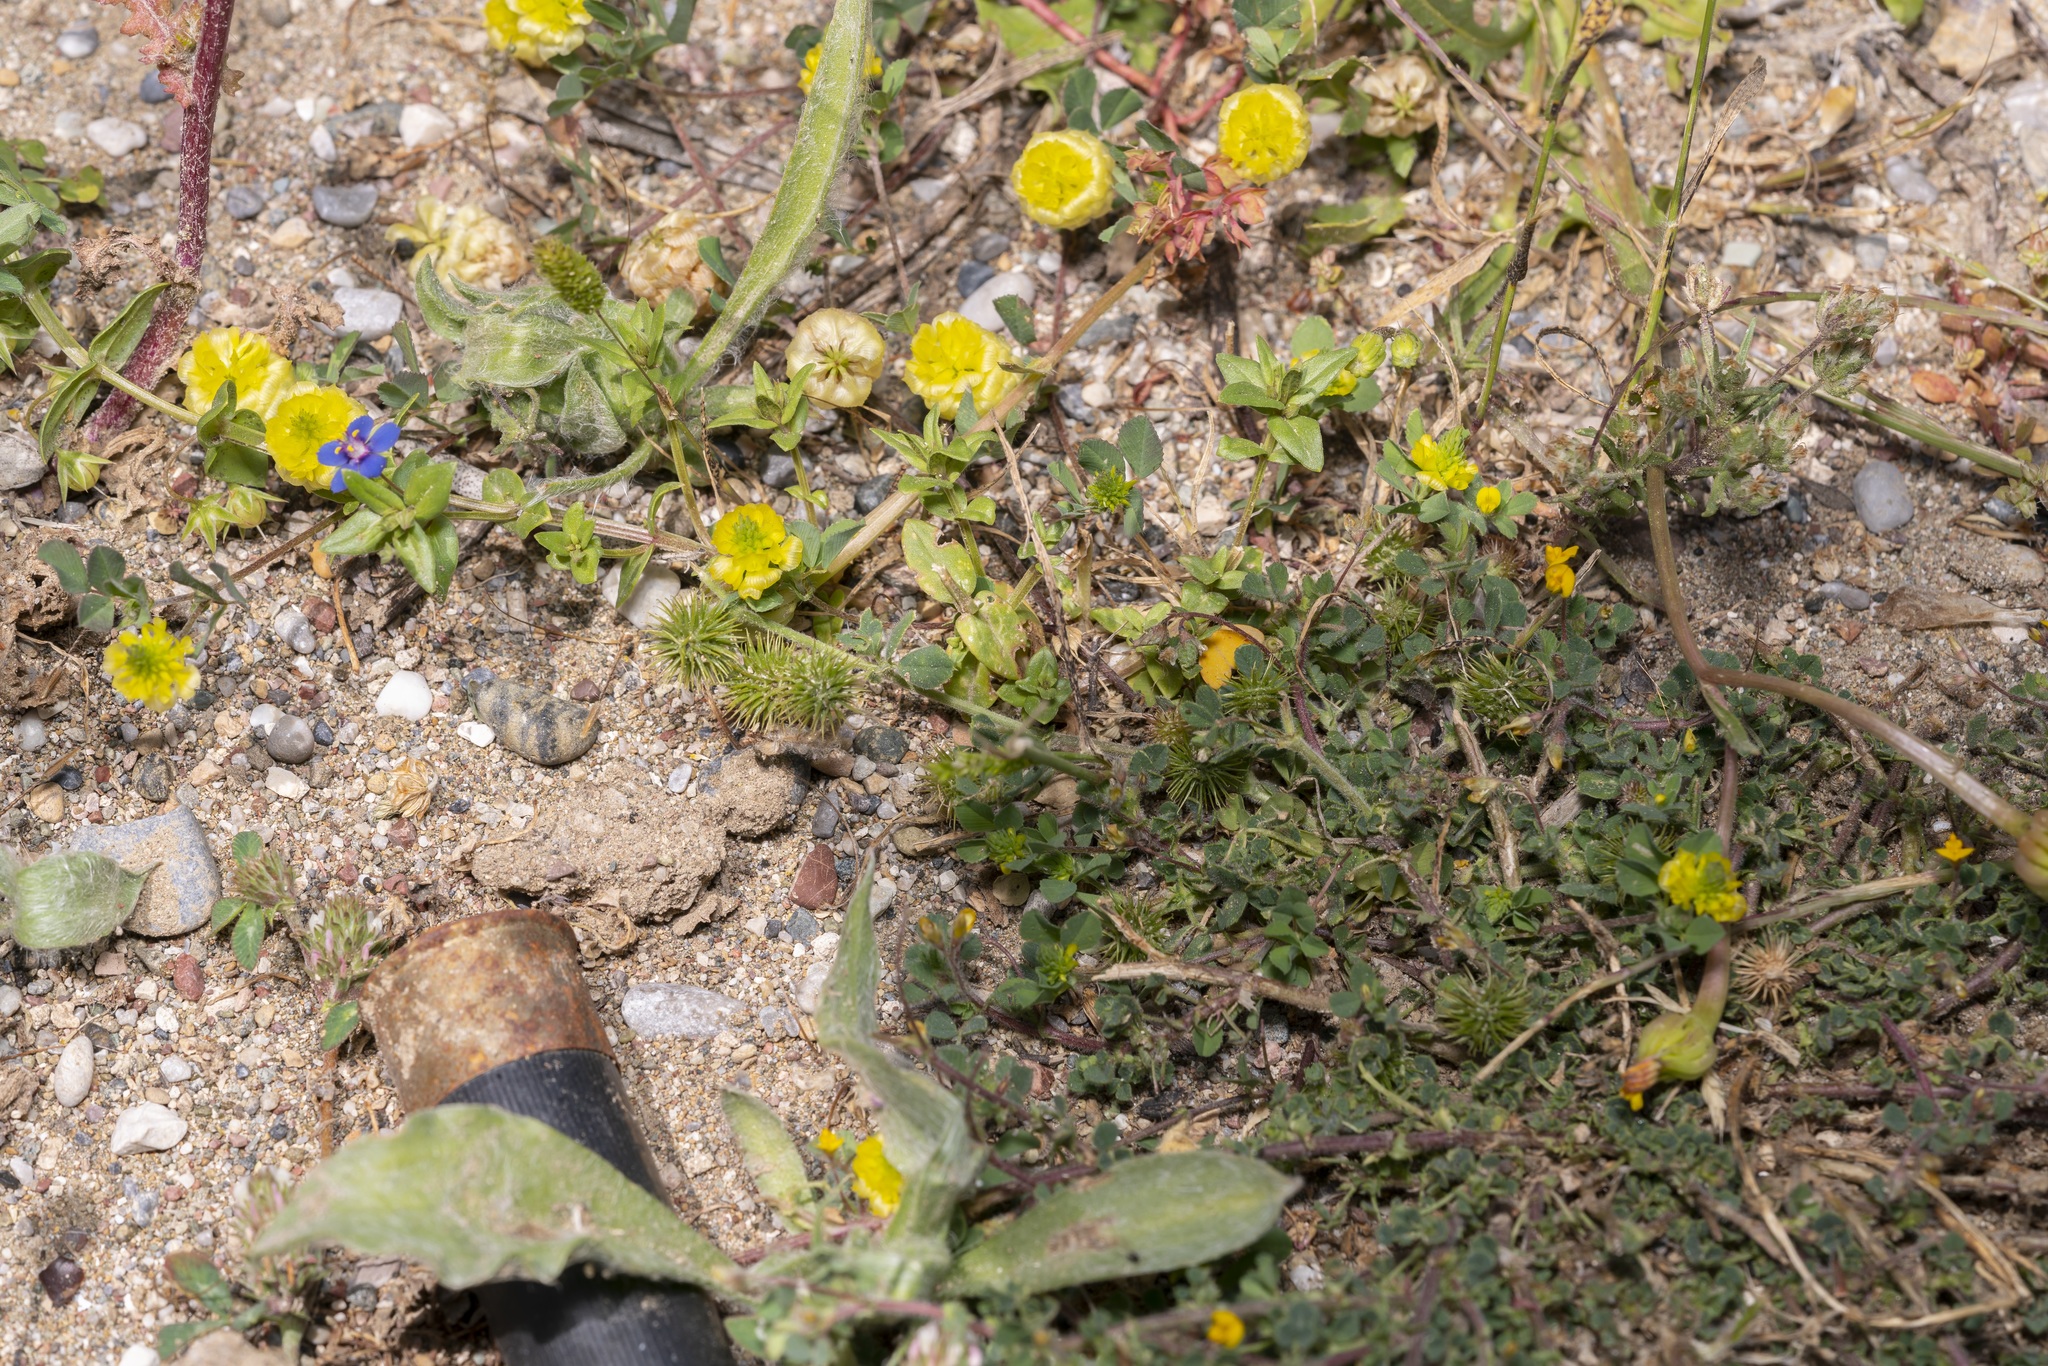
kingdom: Plantae
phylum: Tracheophyta
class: Magnoliopsida
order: Fabales
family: Fabaceae
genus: Medicago
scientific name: Medicago minima
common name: Little bur-clover
